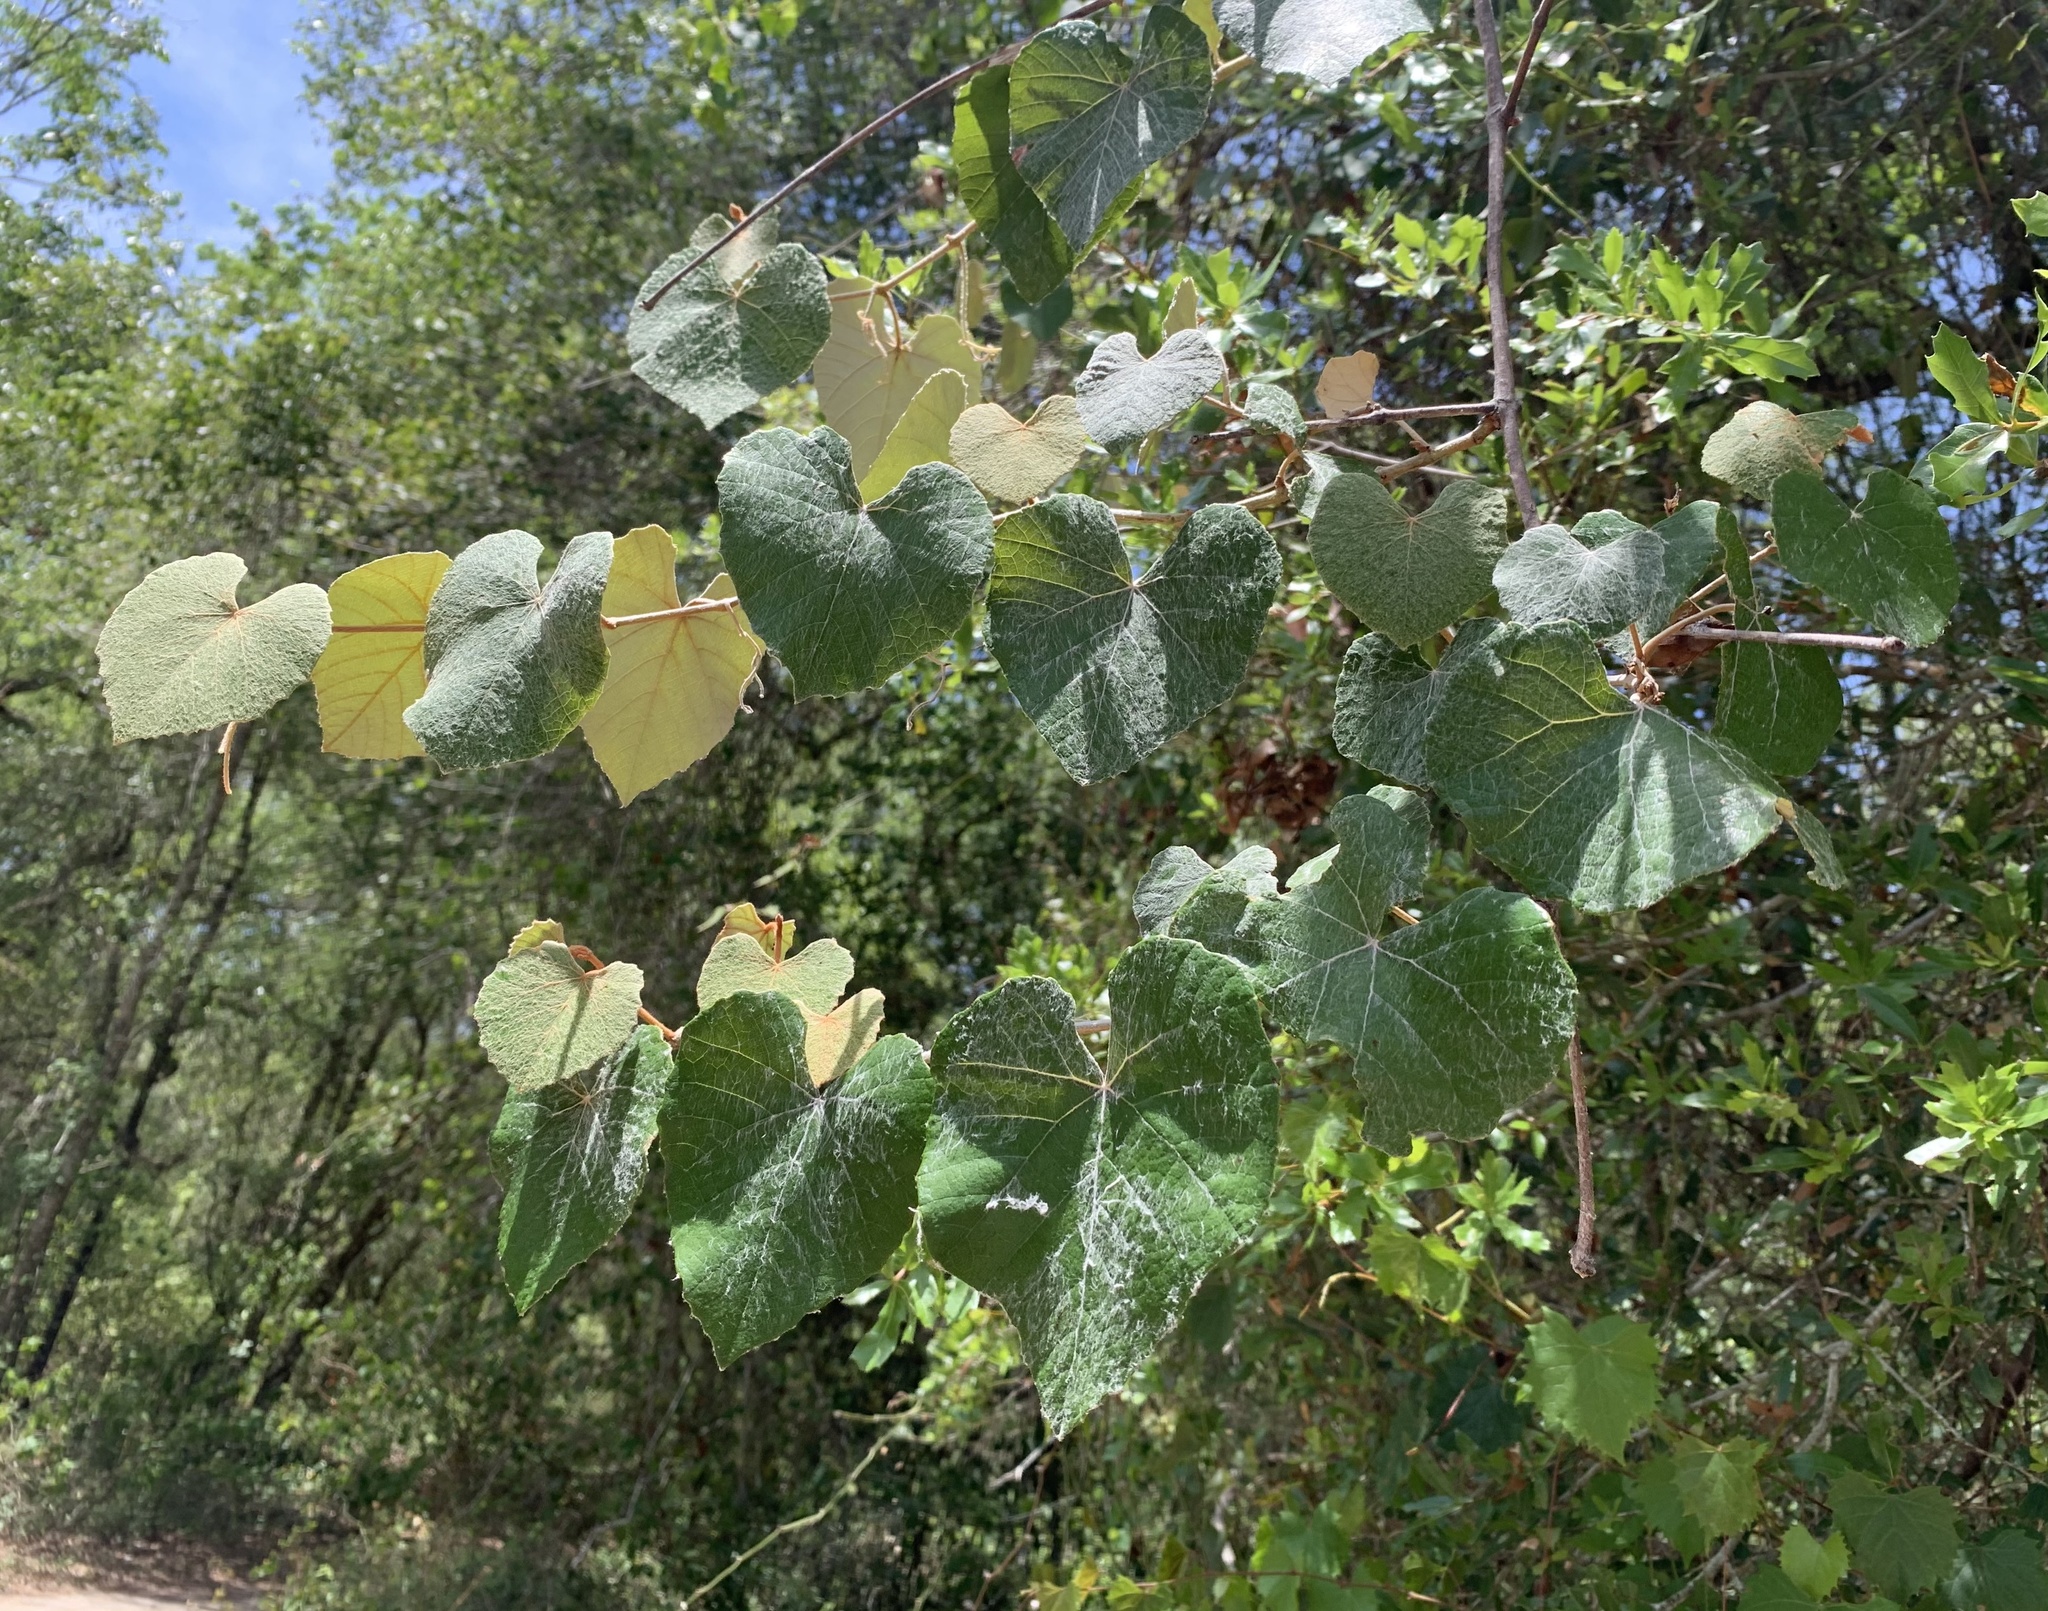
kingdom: Plantae
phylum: Tracheophyta
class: Magnoliopsida
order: Vitales
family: Vitaceae
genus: Vitis
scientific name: Vitis shuttleworthii
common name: Caloosa grape
